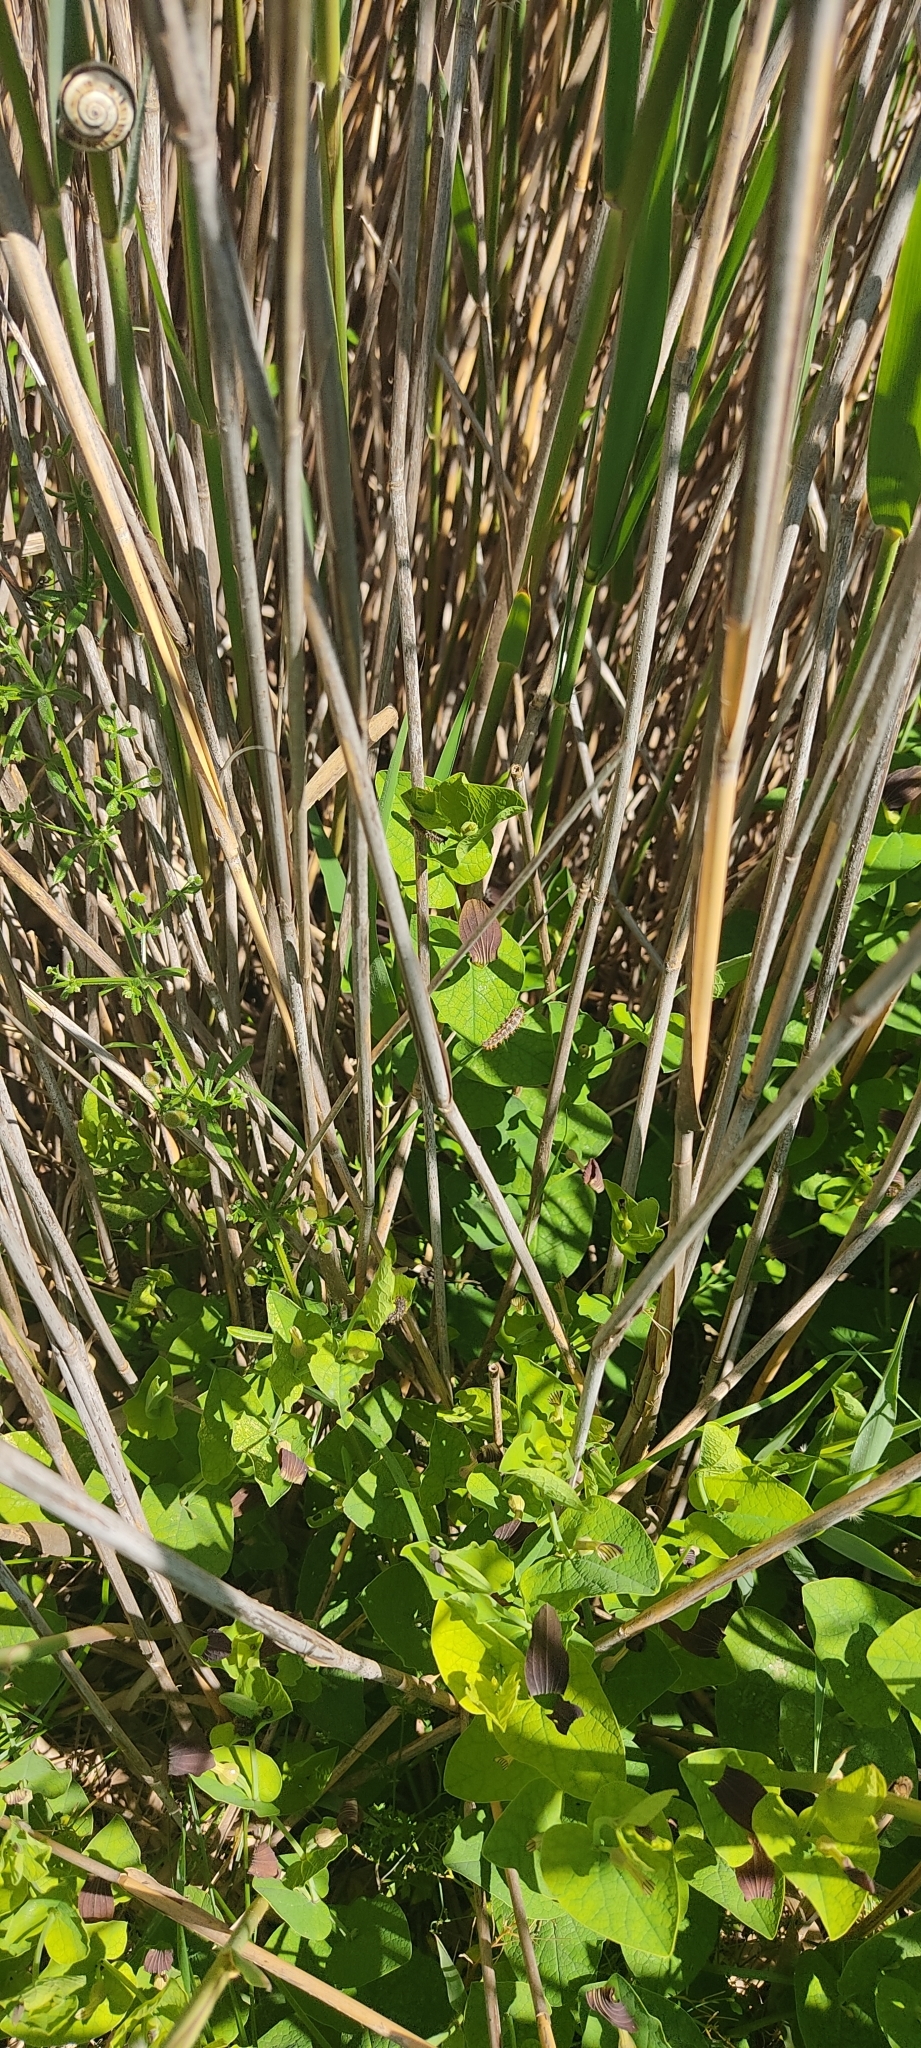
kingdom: Animalia
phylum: Arthropoda
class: Insecta
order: Lepidoptera
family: Papilionidae
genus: Zerynthia
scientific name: Zerynthia polyxena
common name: Southern festoon
